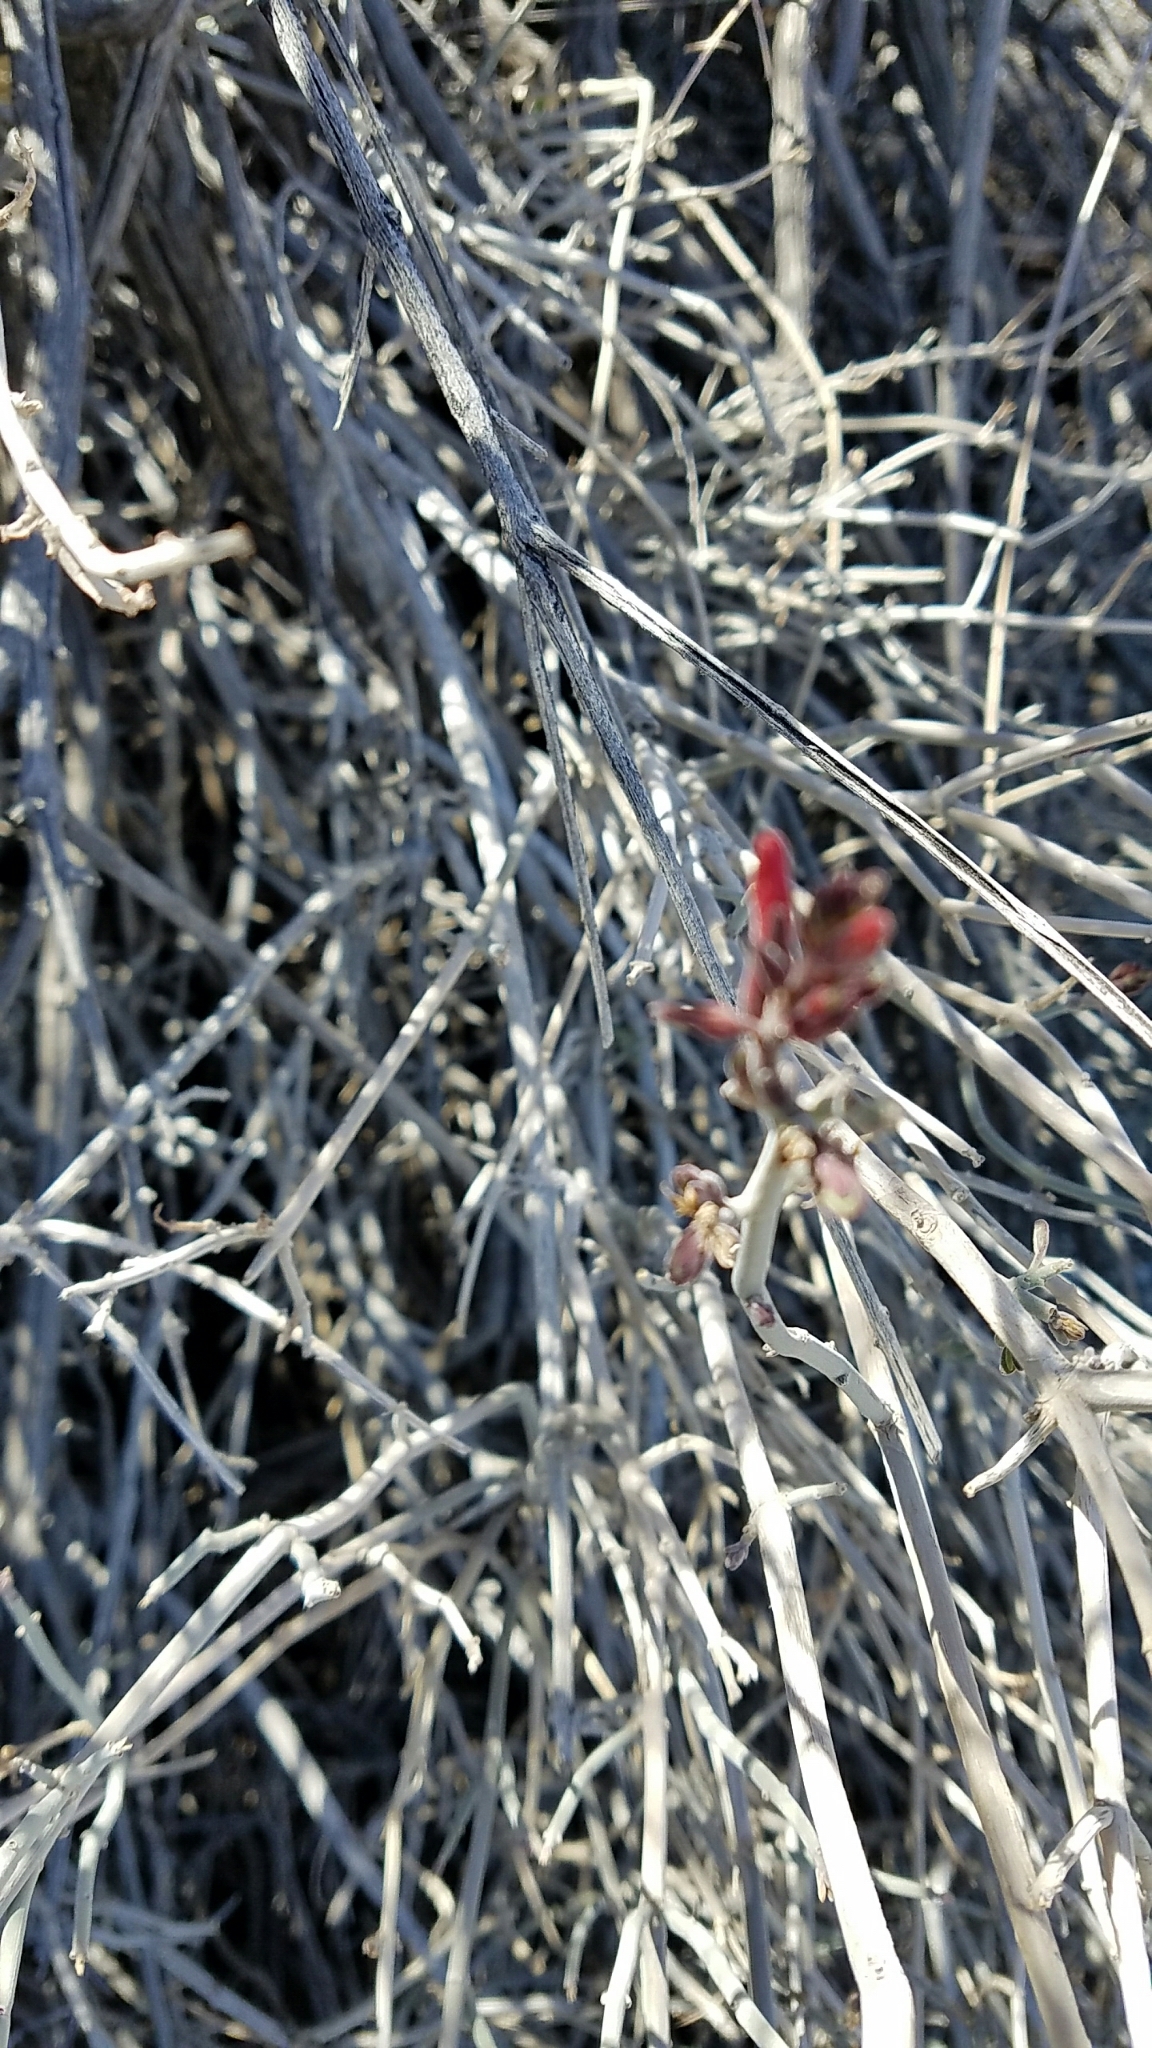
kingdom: Plantae
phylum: Tracheophyta
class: Magnoliopsida
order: Lamiales
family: Acanthaceae
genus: Justicia
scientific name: Justicia californica
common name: Chuparosa-honeysuckle
